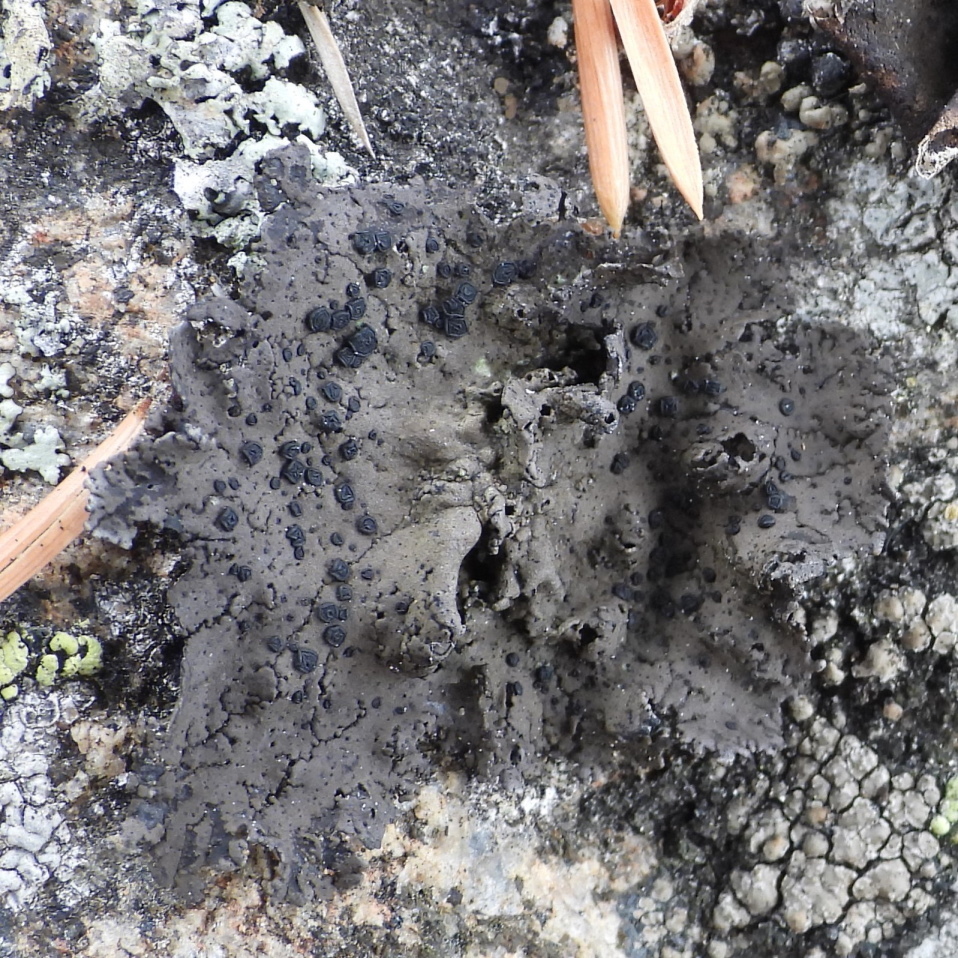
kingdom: Fungi
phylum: Ascomycota
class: Lecanoromycetes
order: Umbilicariales
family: Umbilicariaceae
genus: Umbilicaria
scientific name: Umbilicaria torrefacta
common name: Punctured rock tripe lichen
